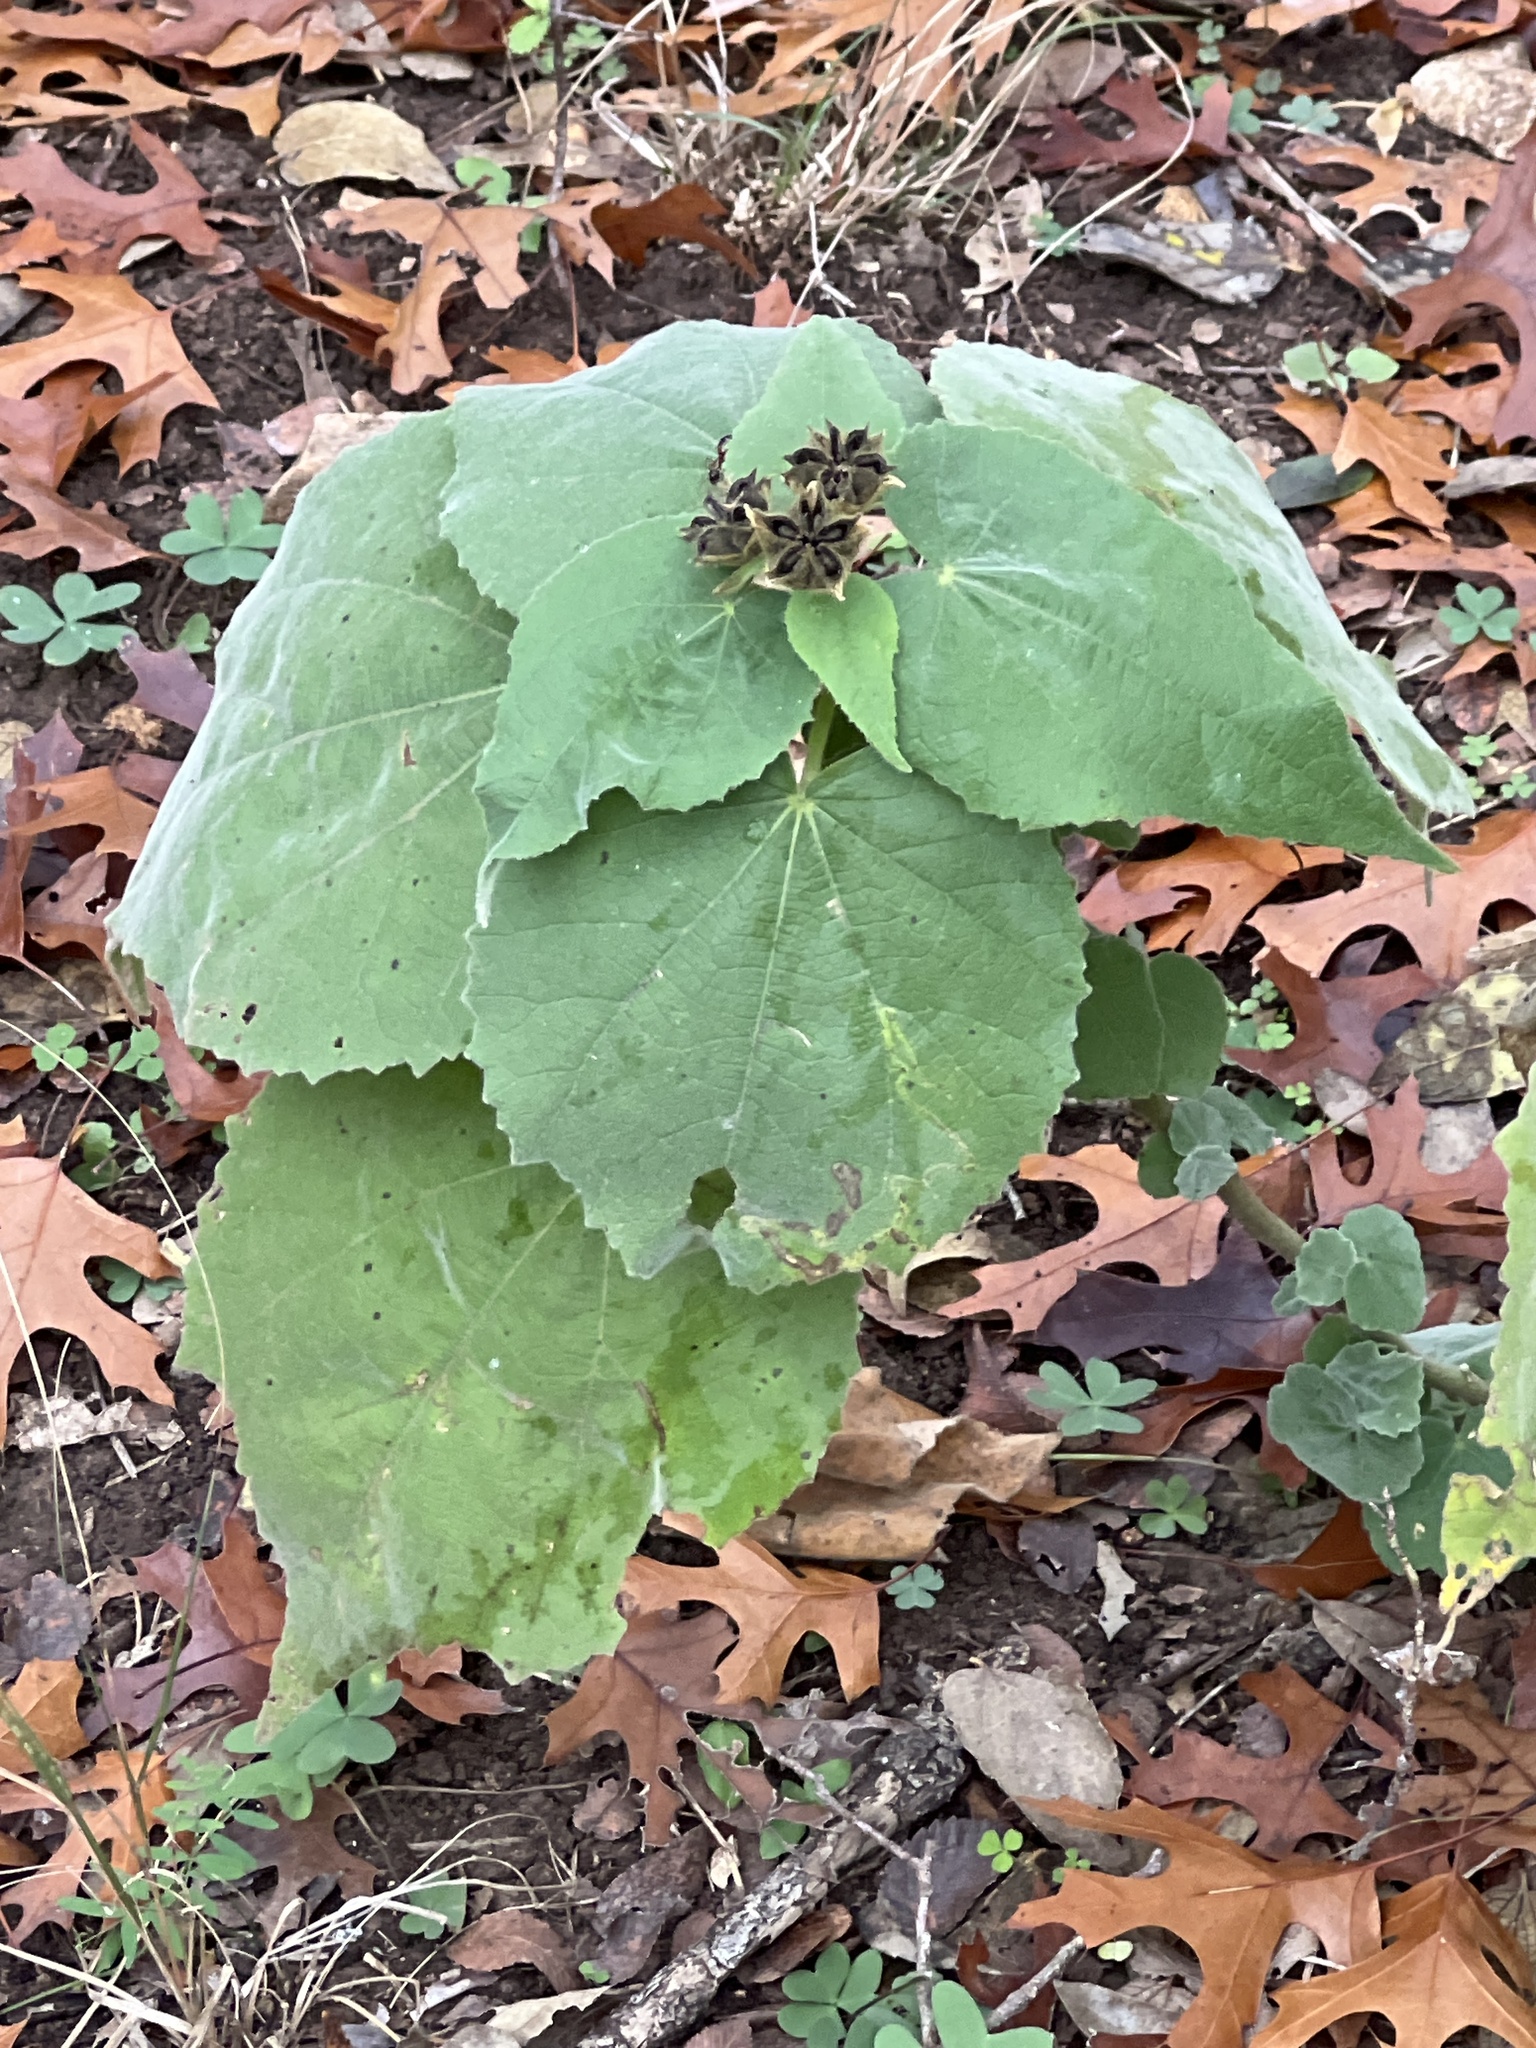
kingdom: Plantae
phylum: Tracheophyta
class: Magnoliopsida
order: Malvales
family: Malvaceae
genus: Allowissadula
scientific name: Allowissadula holosericea
